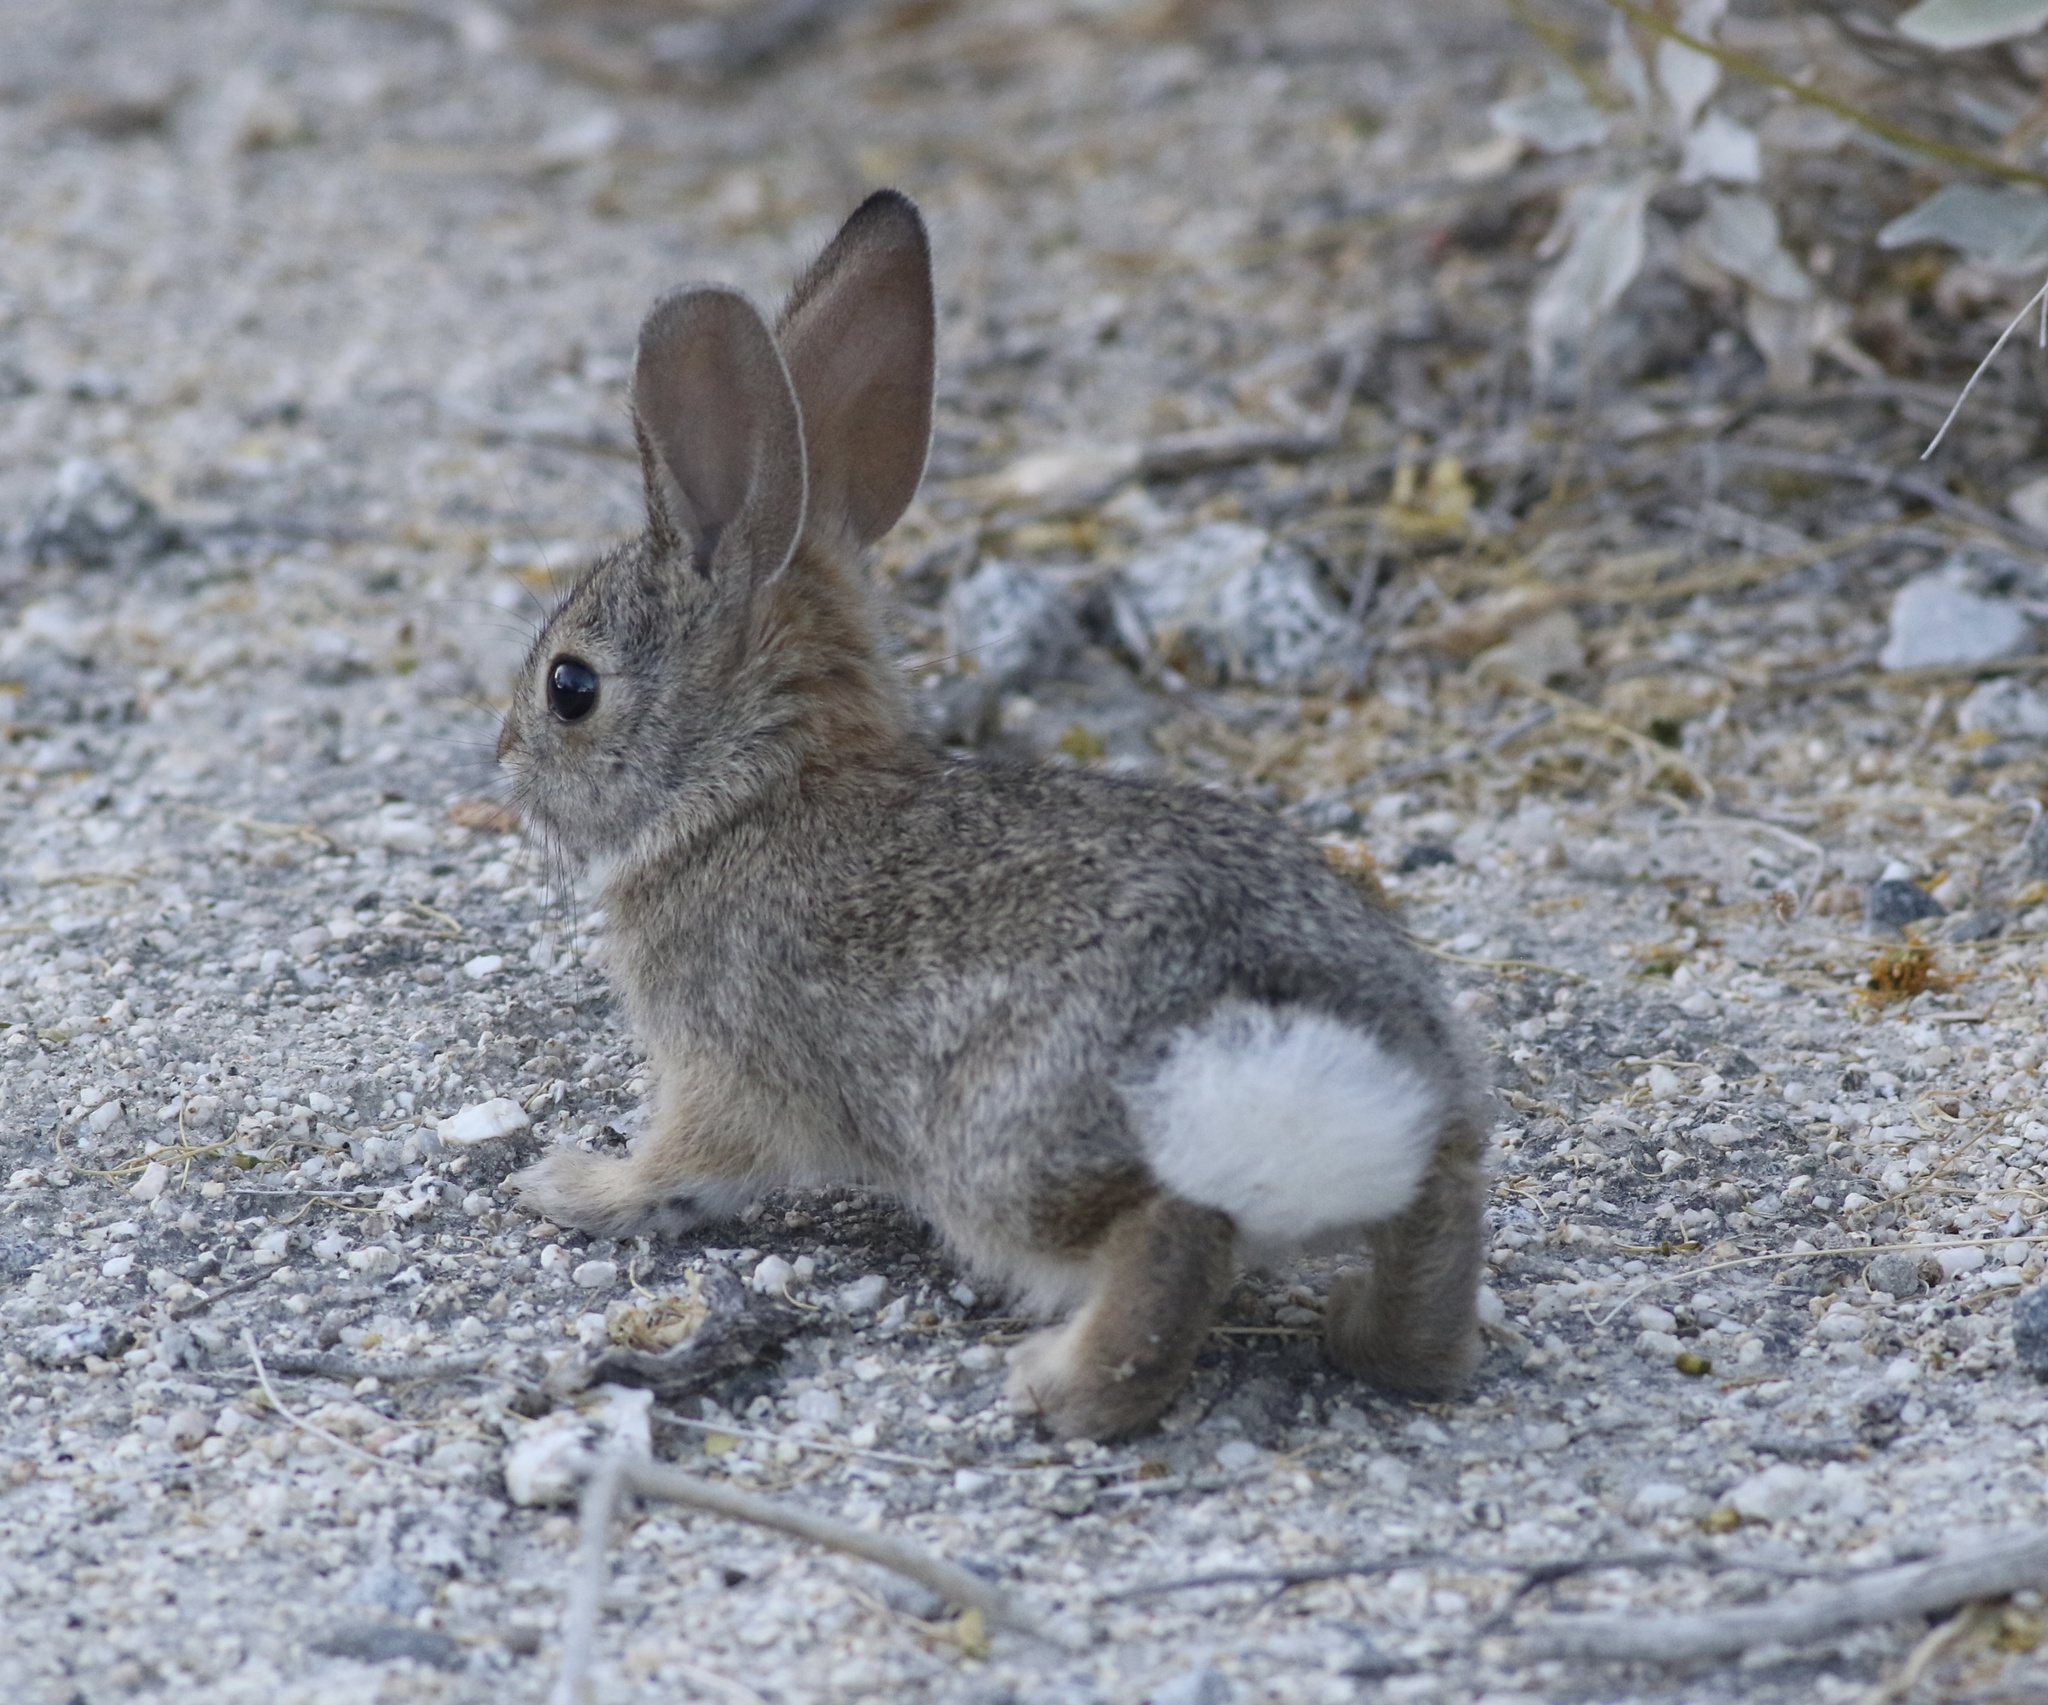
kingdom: Animalia
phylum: Chordata
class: Mammalia
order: Lagomorpha
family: Leporidae
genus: Sylvilagus
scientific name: Sylvilagus audubonii
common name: Desert cottontail
